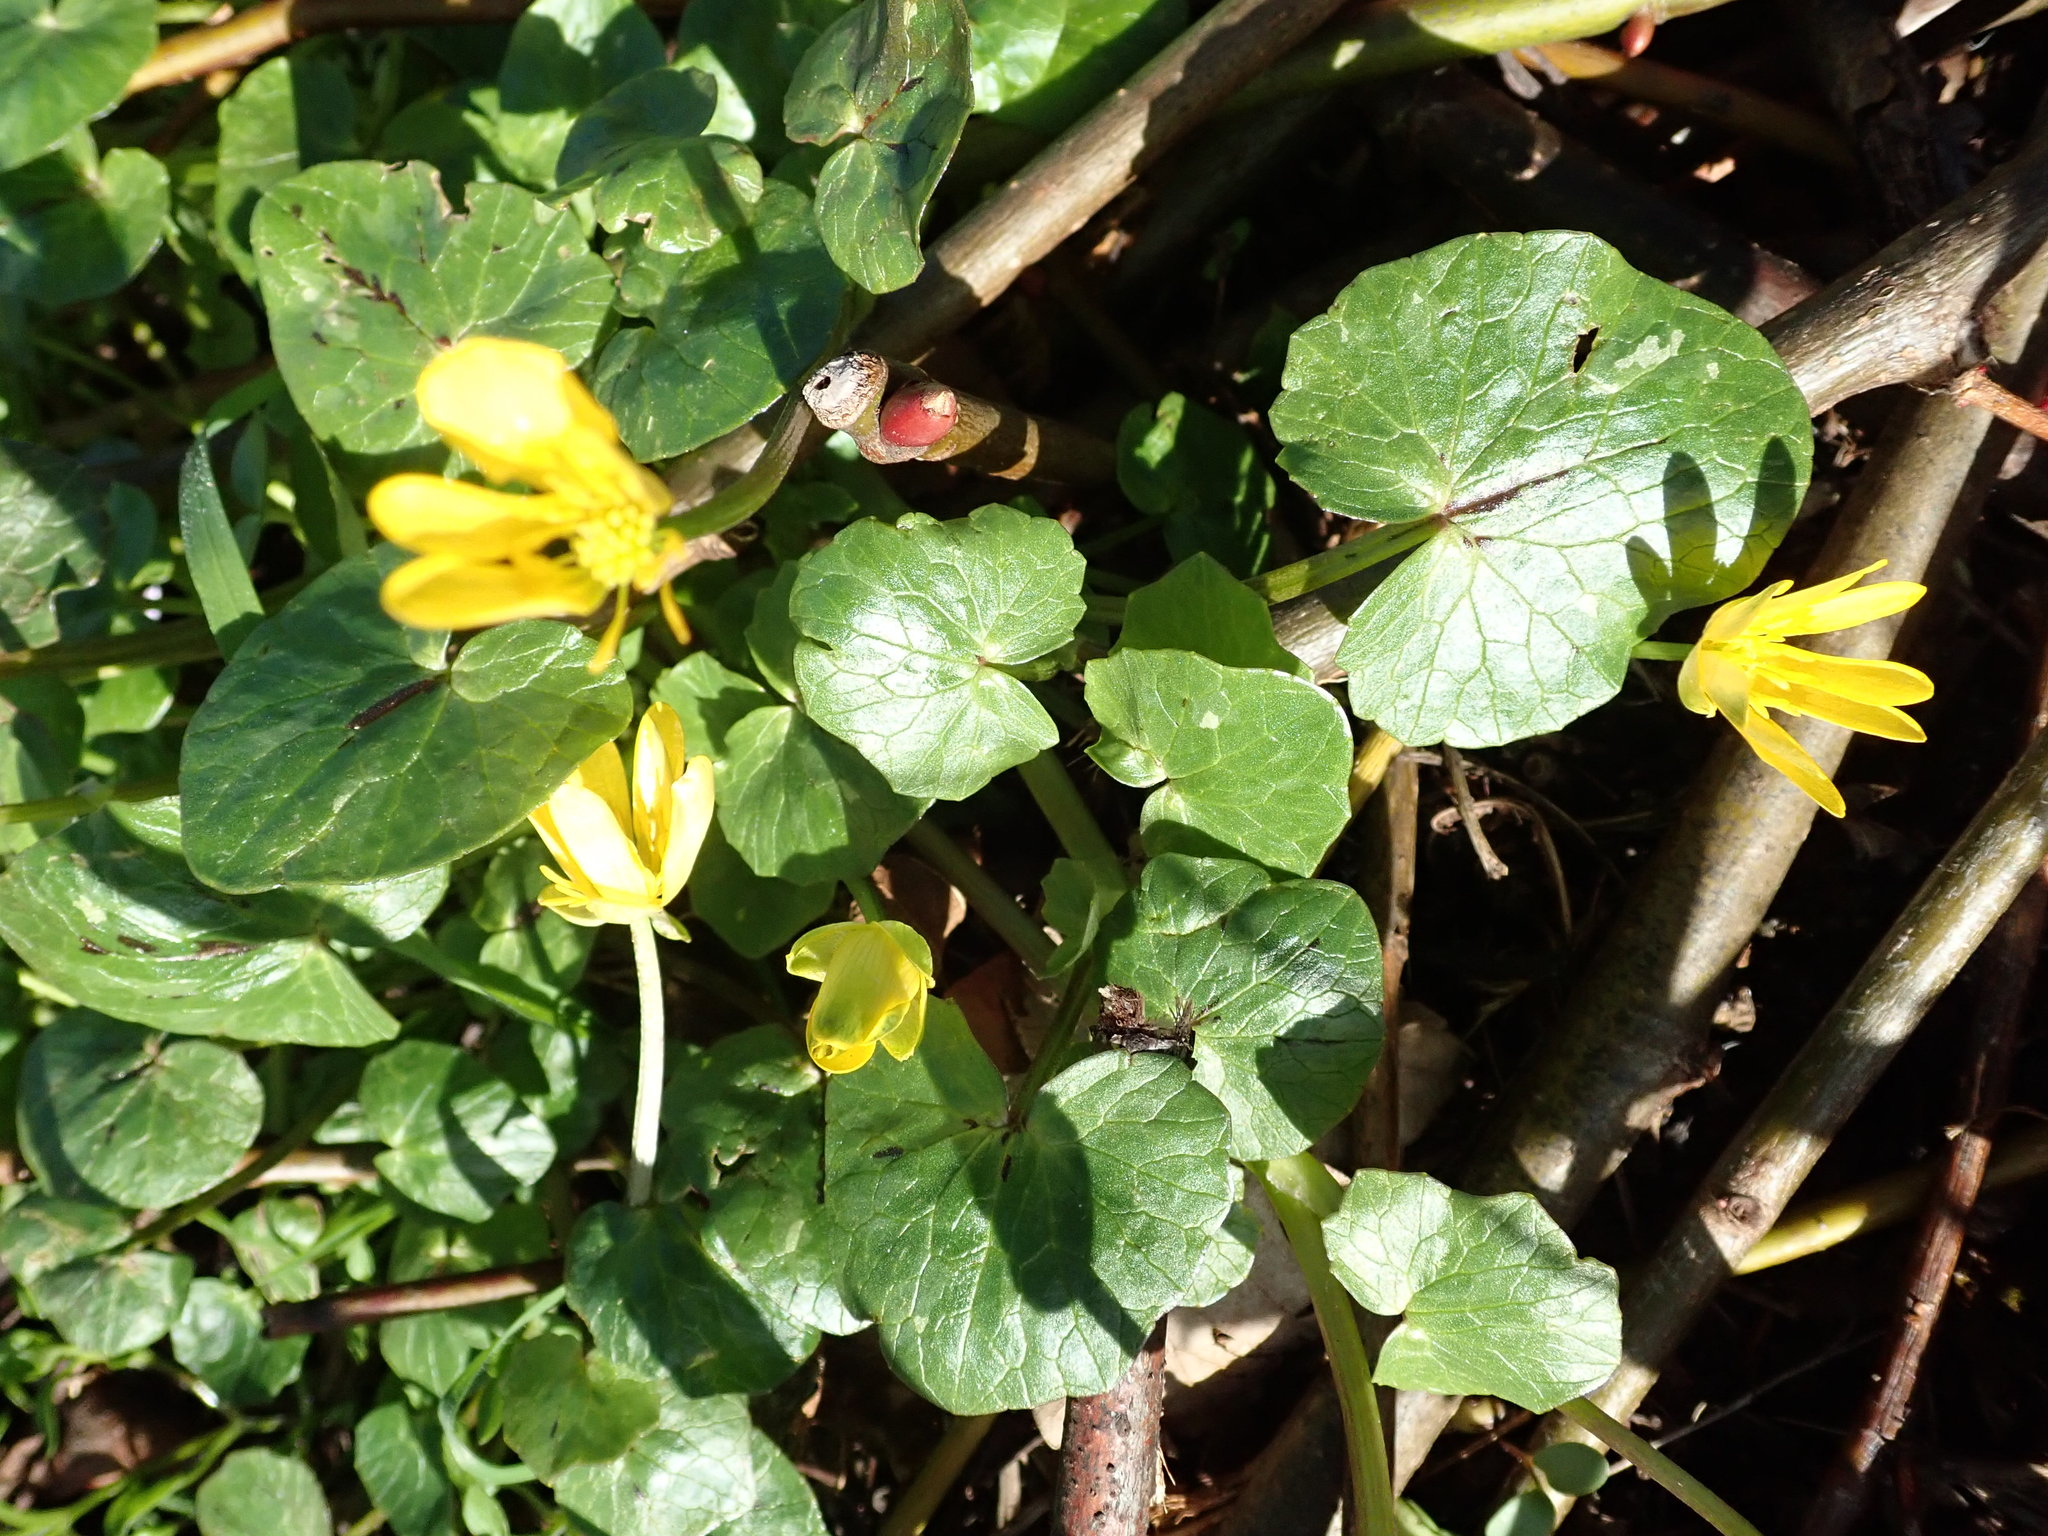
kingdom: Plantae
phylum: Tracheophyta
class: Magnoliopsida
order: Ranunculales
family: Ranunculaceae
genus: Ficaria
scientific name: Ficaria verna
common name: Lesser celandine
